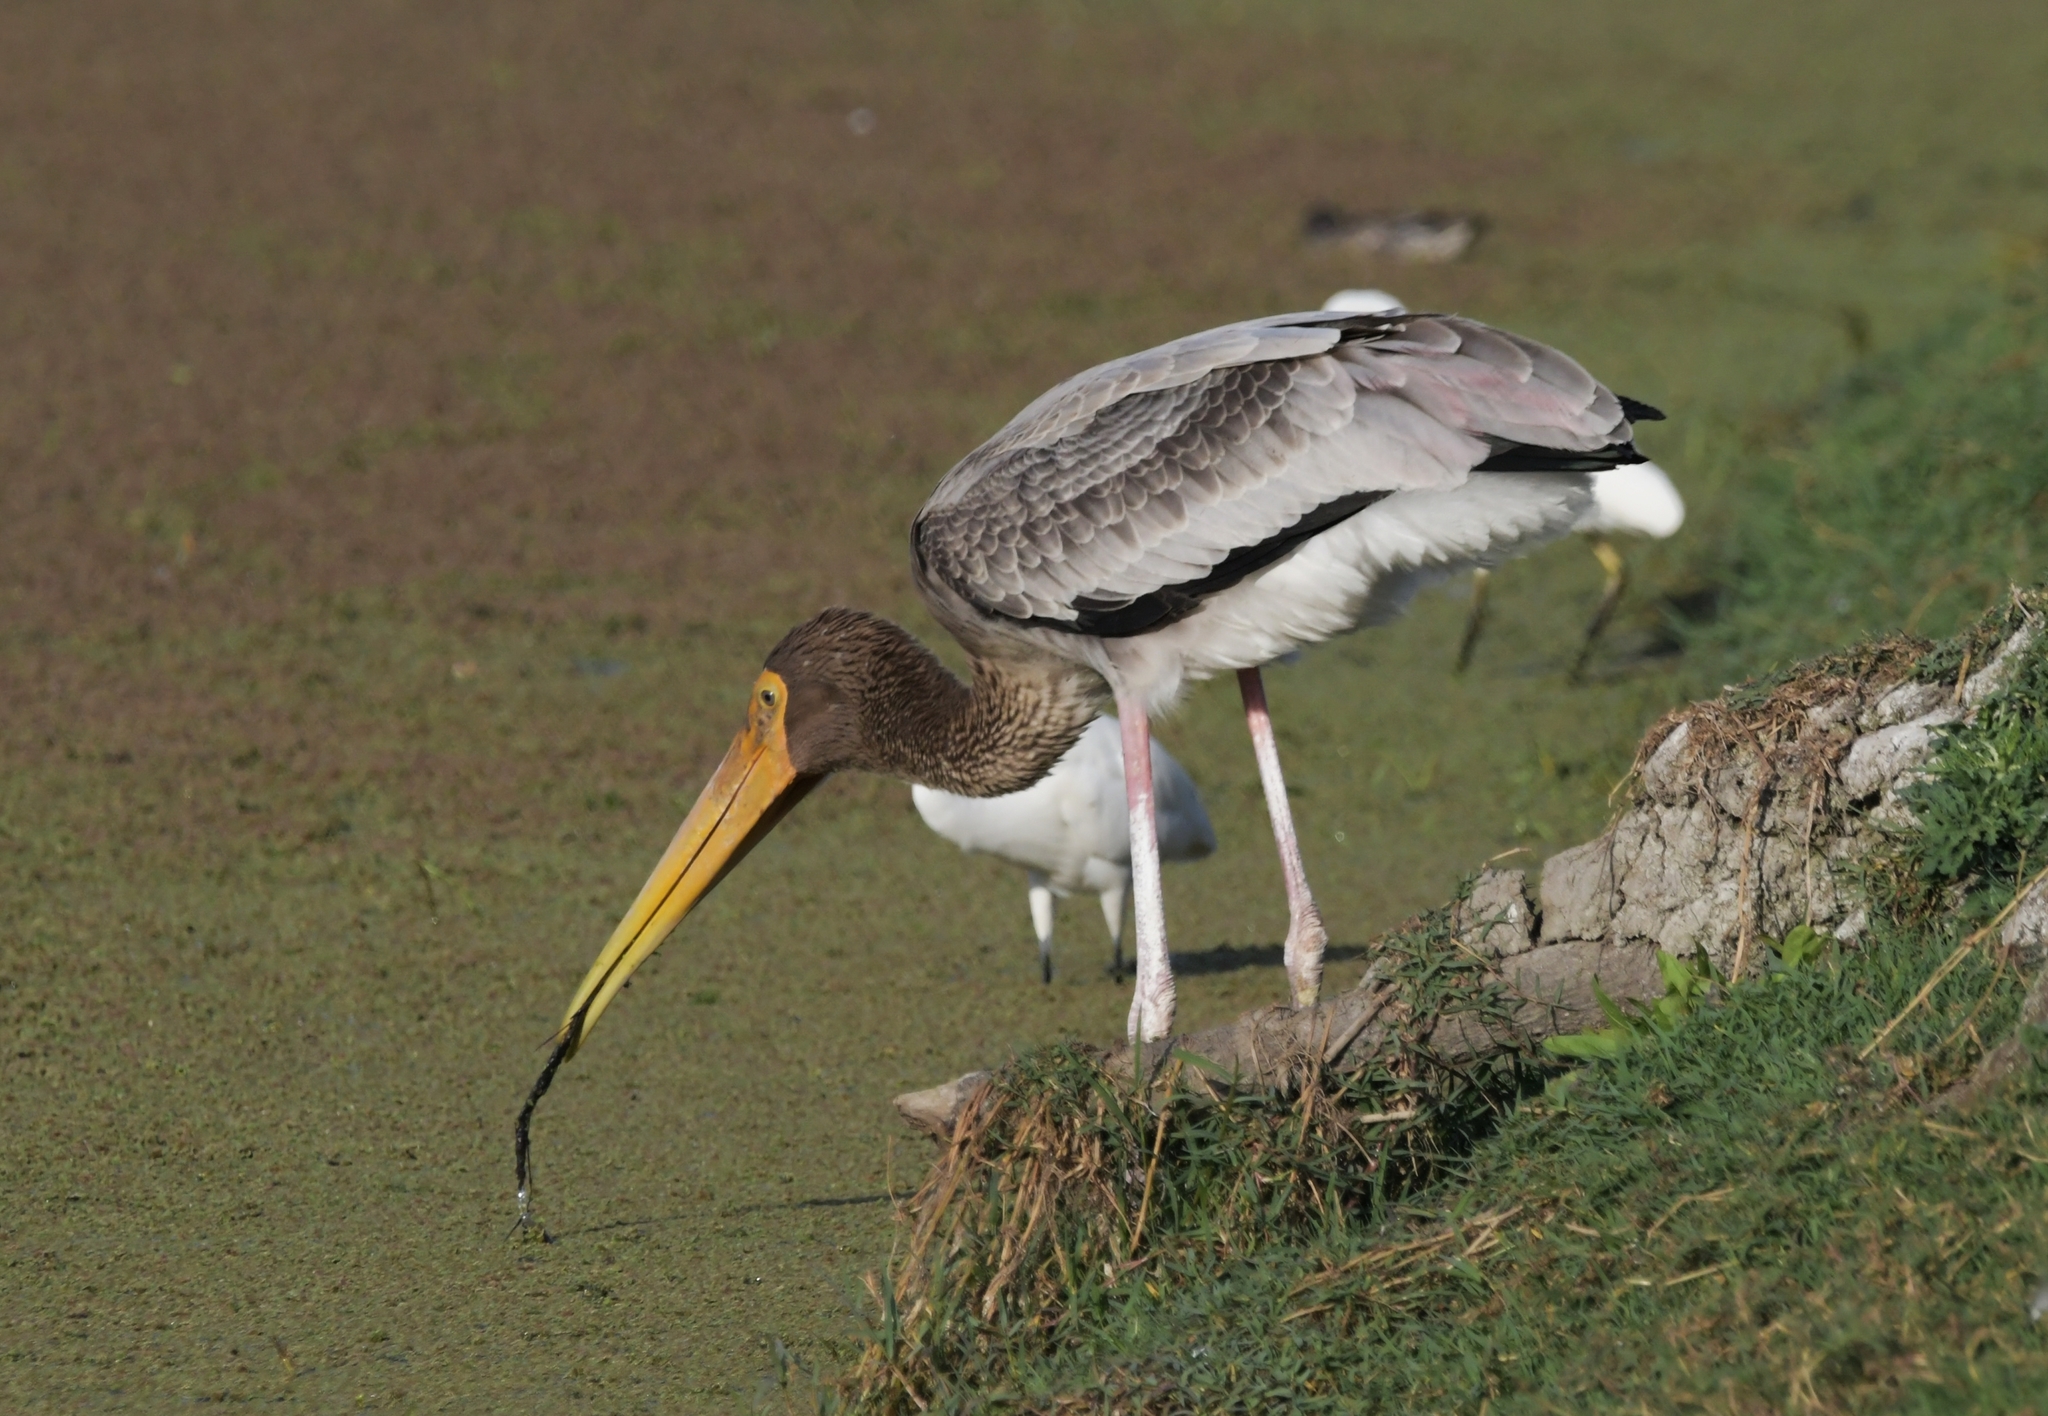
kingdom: Animalia
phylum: Chordata
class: Aves
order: Ciconiiformes
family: Ciconiidae
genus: Mycteria
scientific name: Mycteria leucocephala
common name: Painted stork
